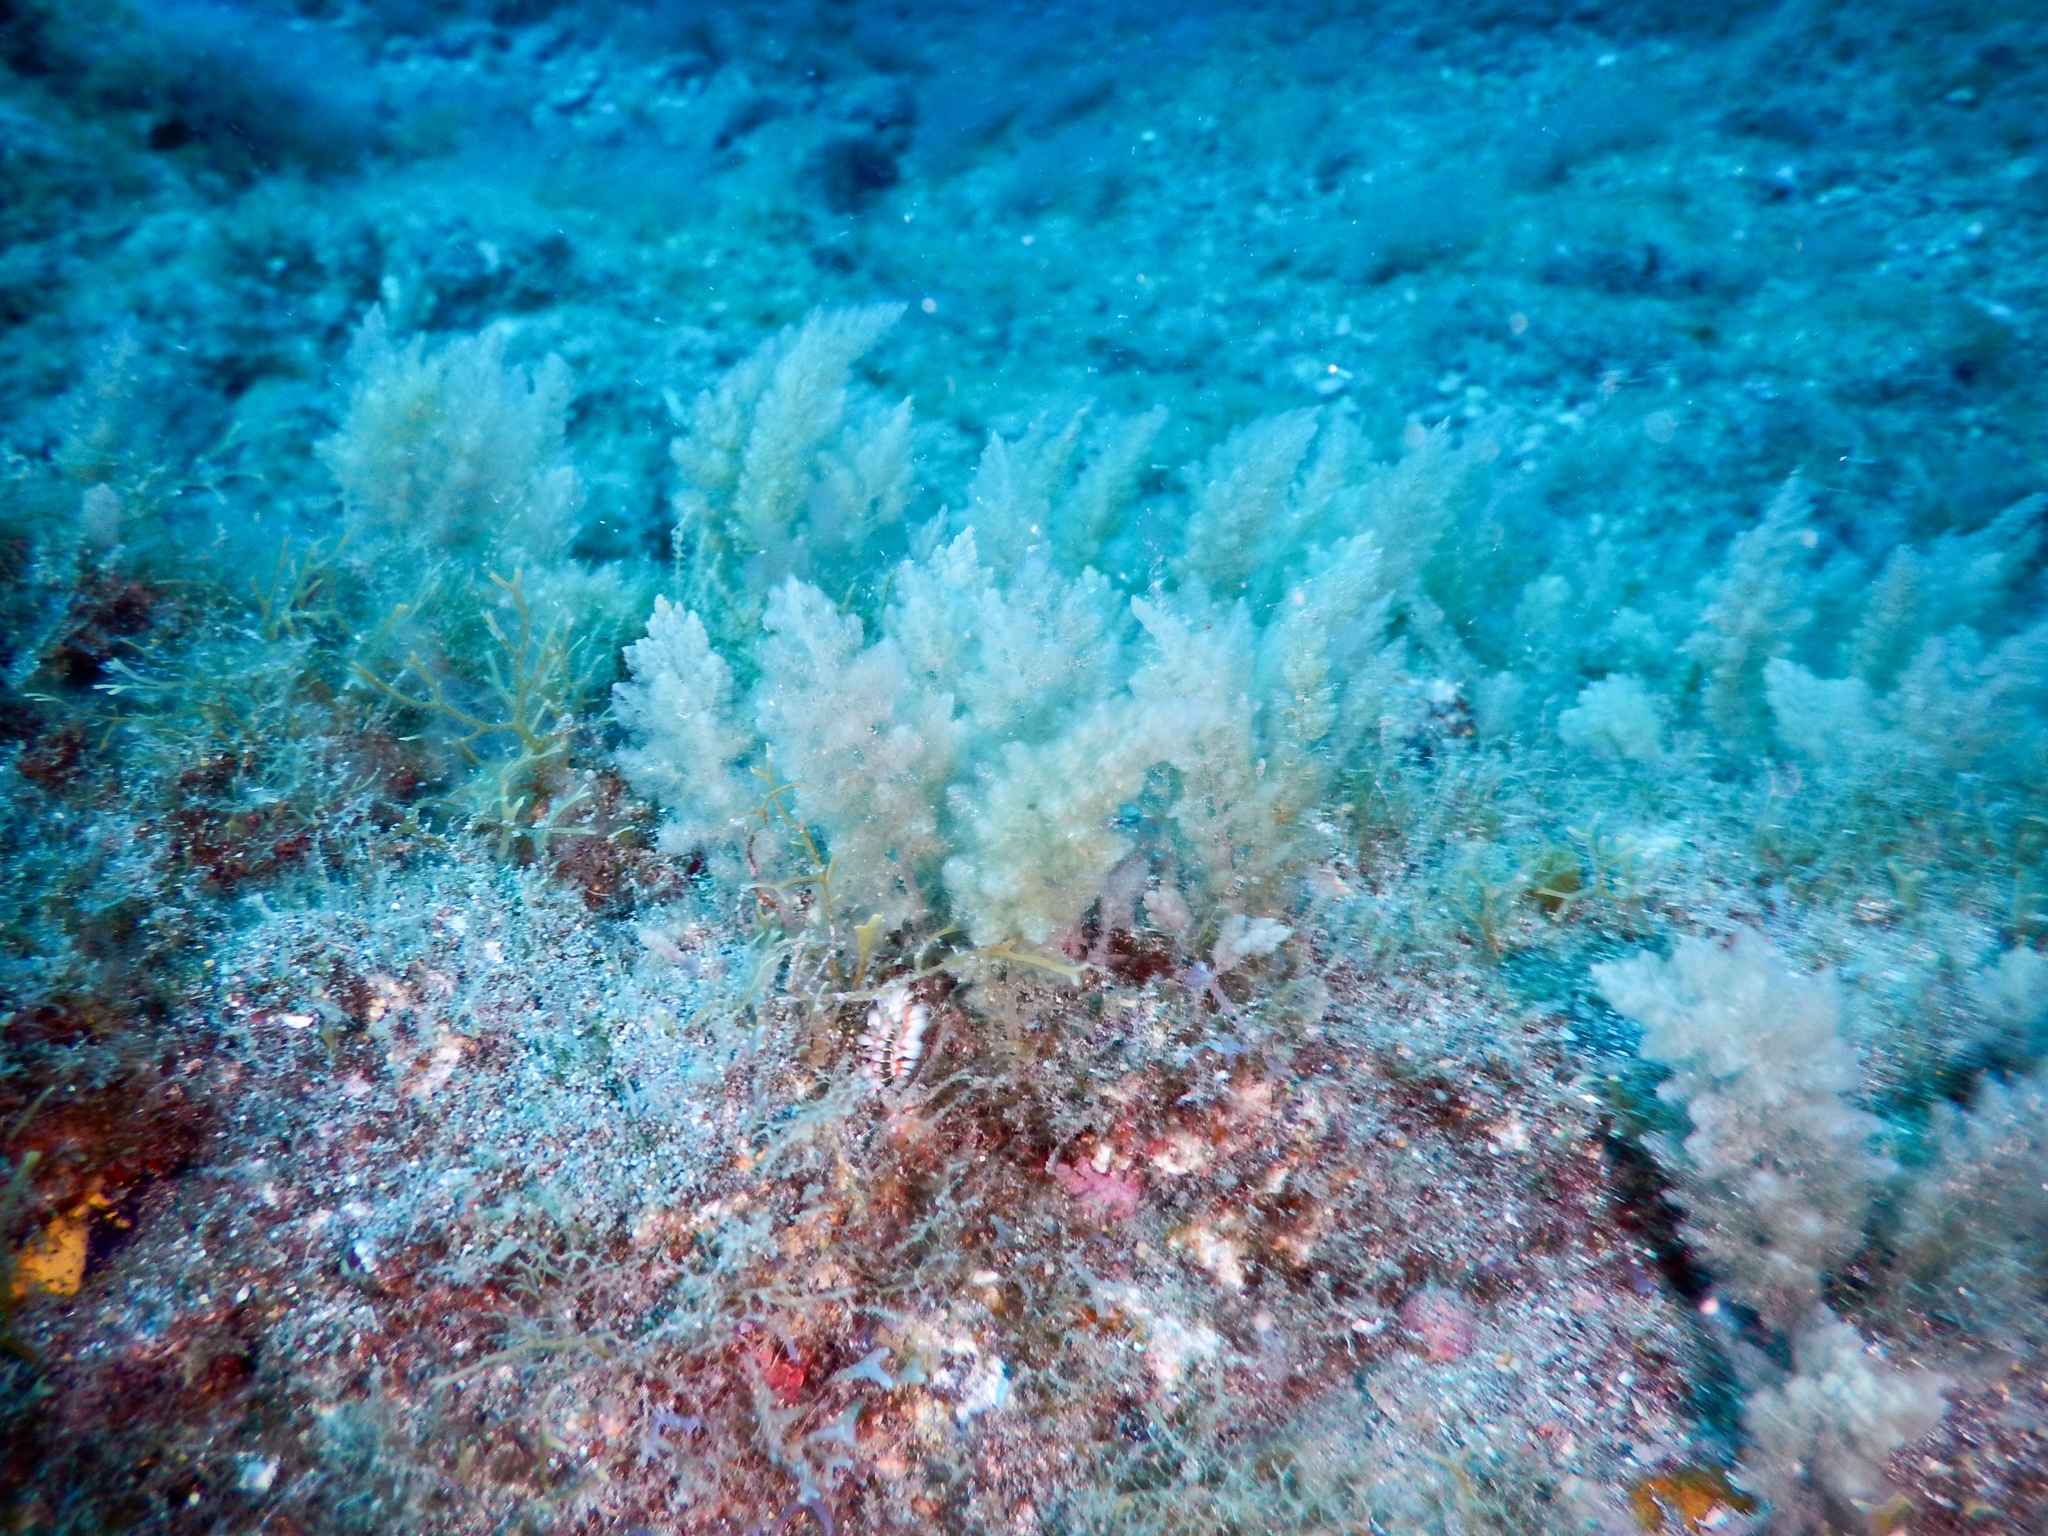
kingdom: Plantae
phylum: Rhodophyta
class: Florideophyceae
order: Bonnemaisoniales
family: Bonnemaisoniaceae
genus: Asparagopsis
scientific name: Asparagopsis taxiformis
